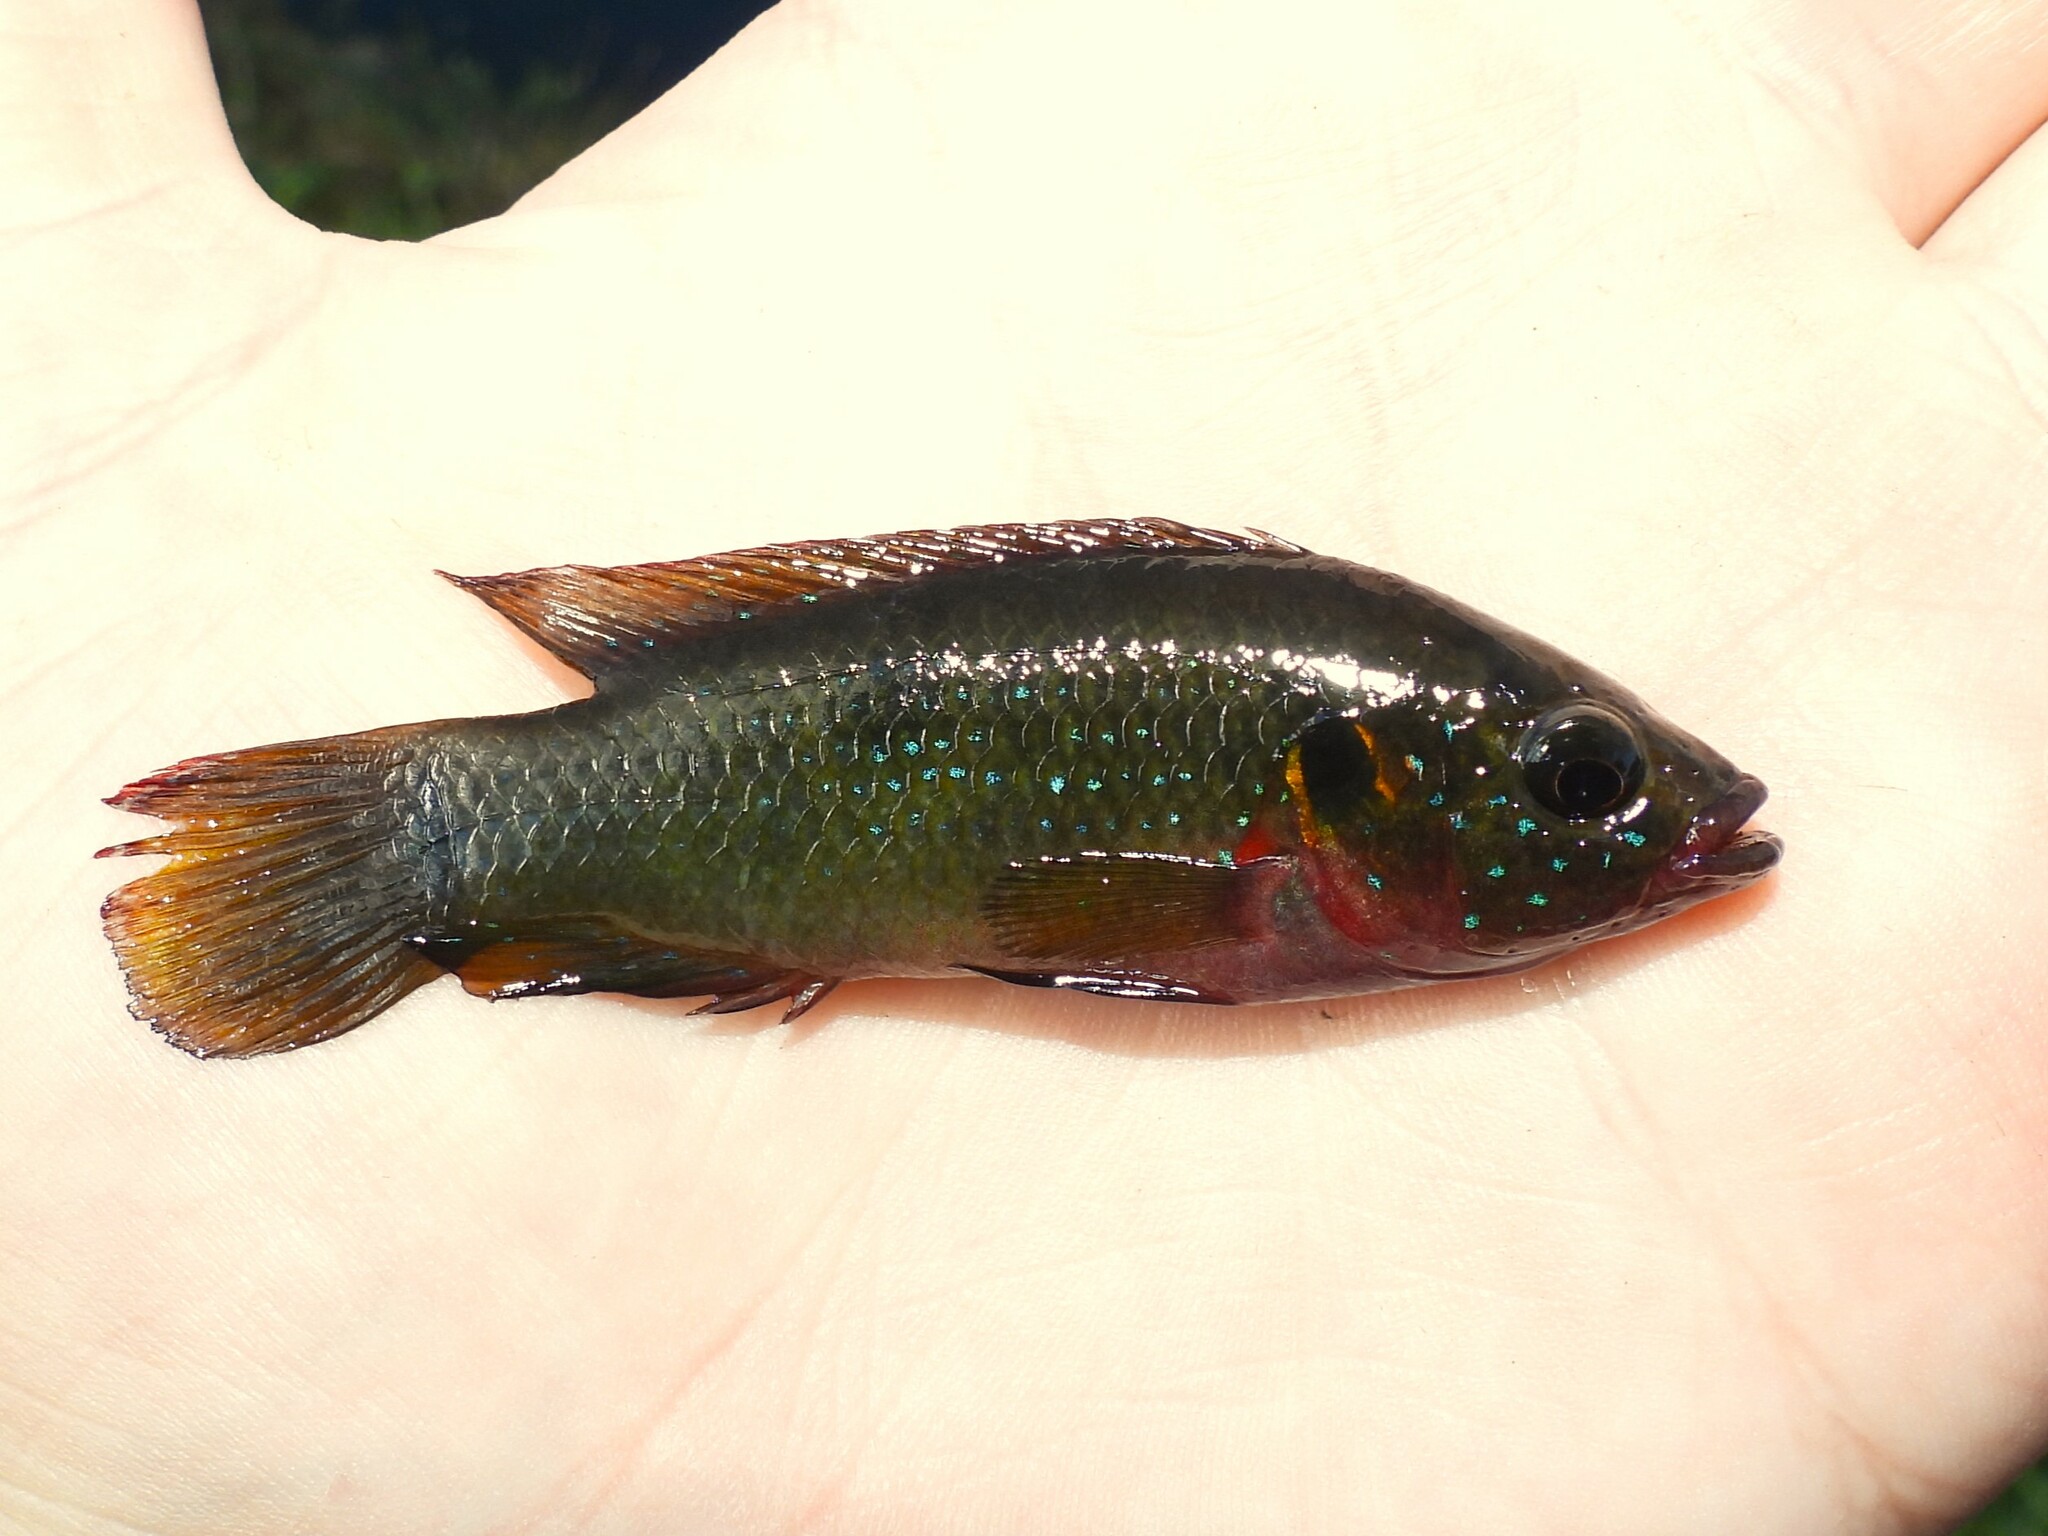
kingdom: Animalia
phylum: Chordata
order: Perciformes
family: Cichlidae
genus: Rubricatochromis
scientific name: Rubricatochromis
